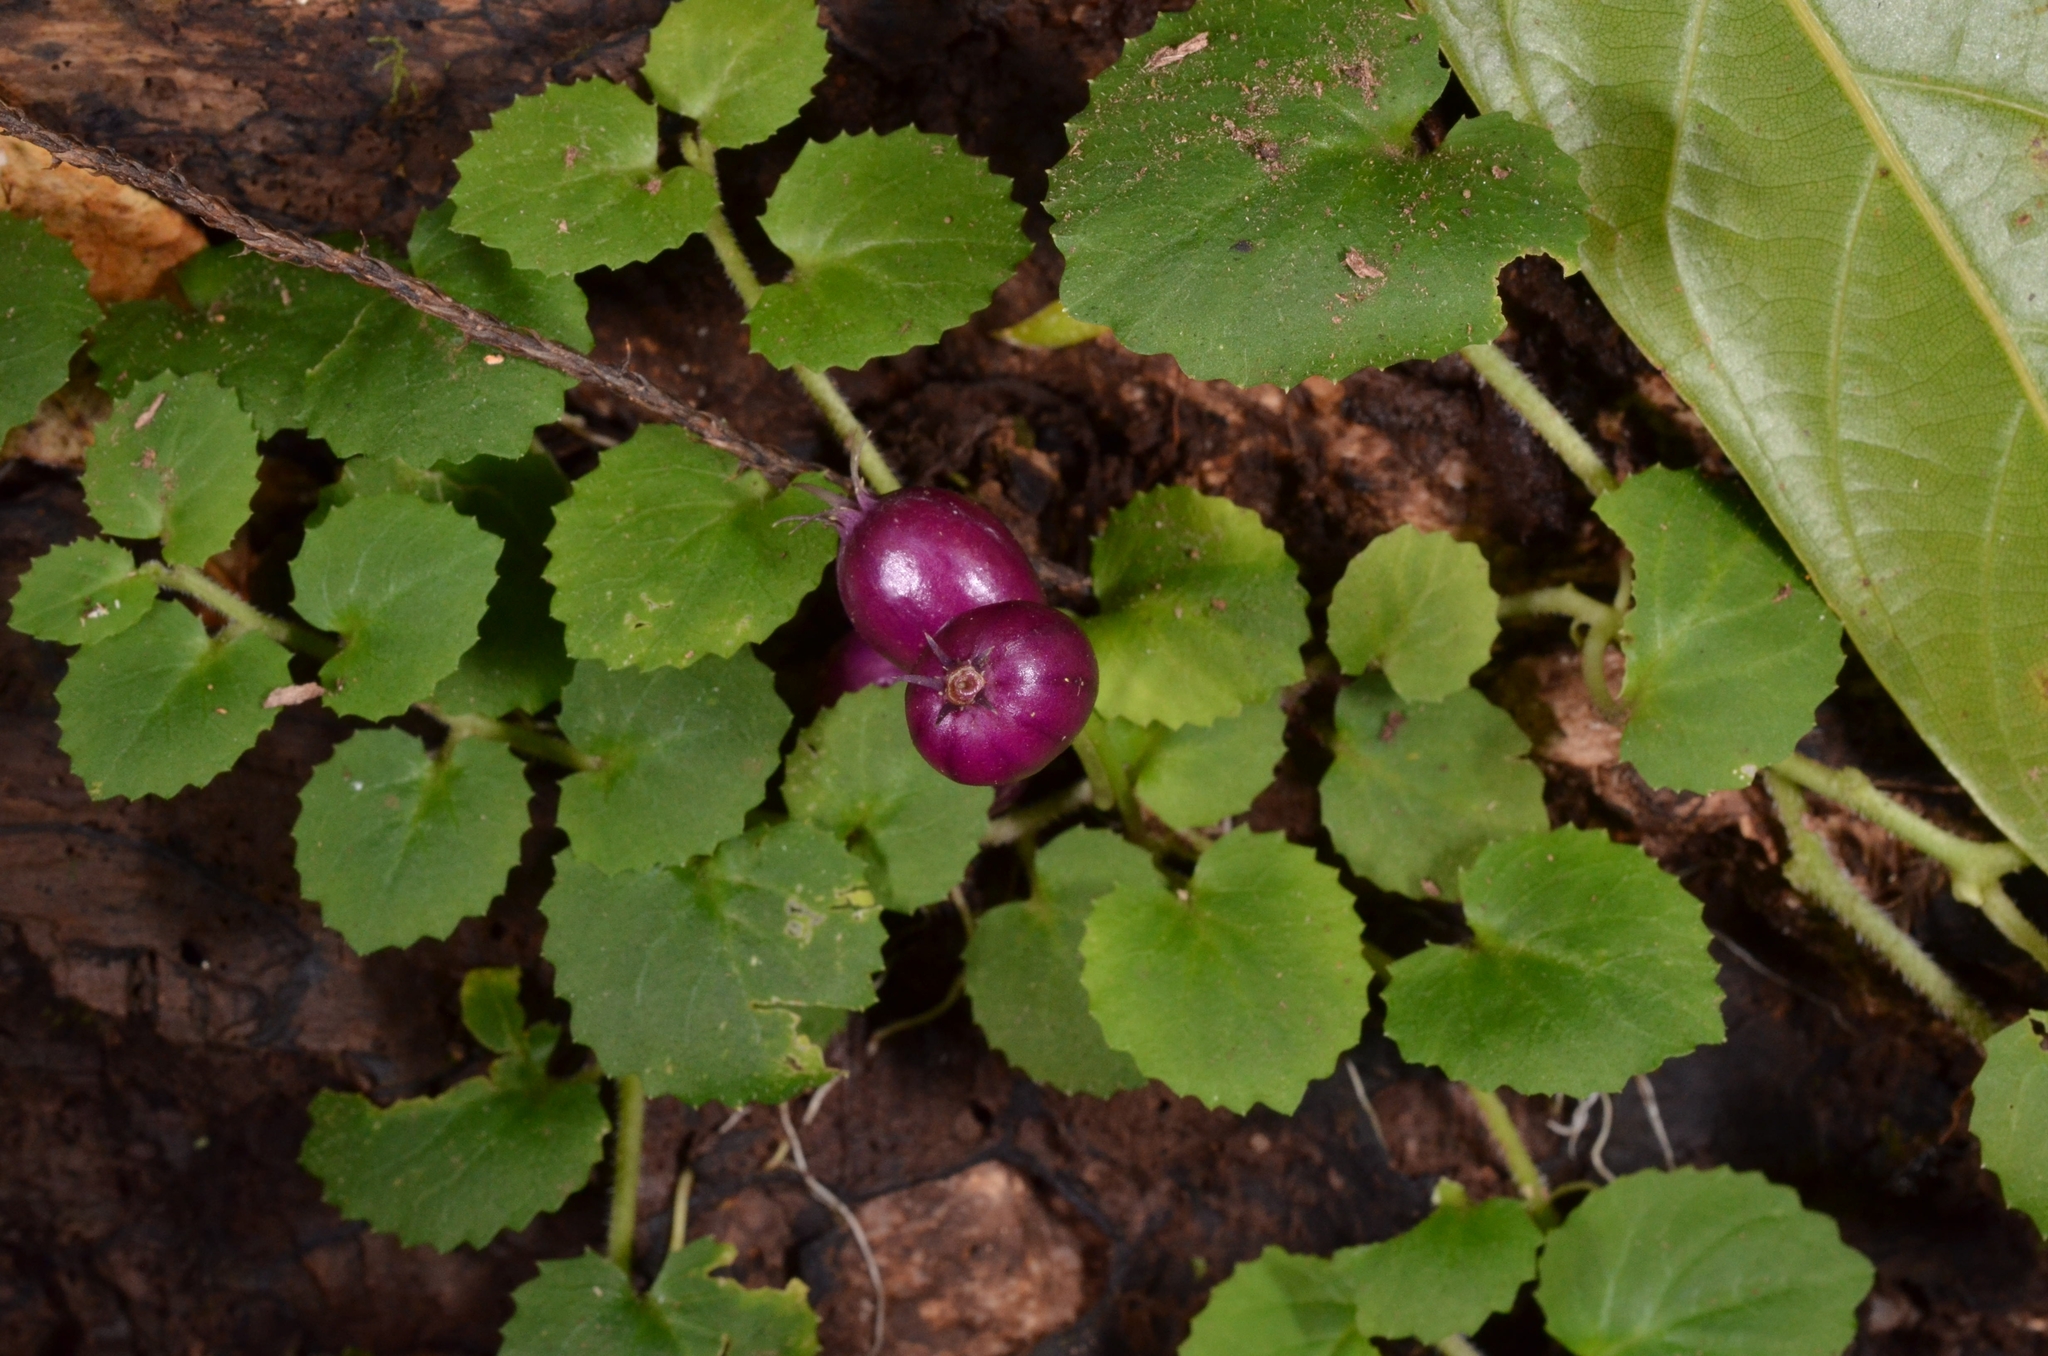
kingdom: Plantae
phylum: Tracheophyta
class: Magnoliopsida
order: Asterales
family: Campanulaceae
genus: Lobelia
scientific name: Lobelia nummularia
